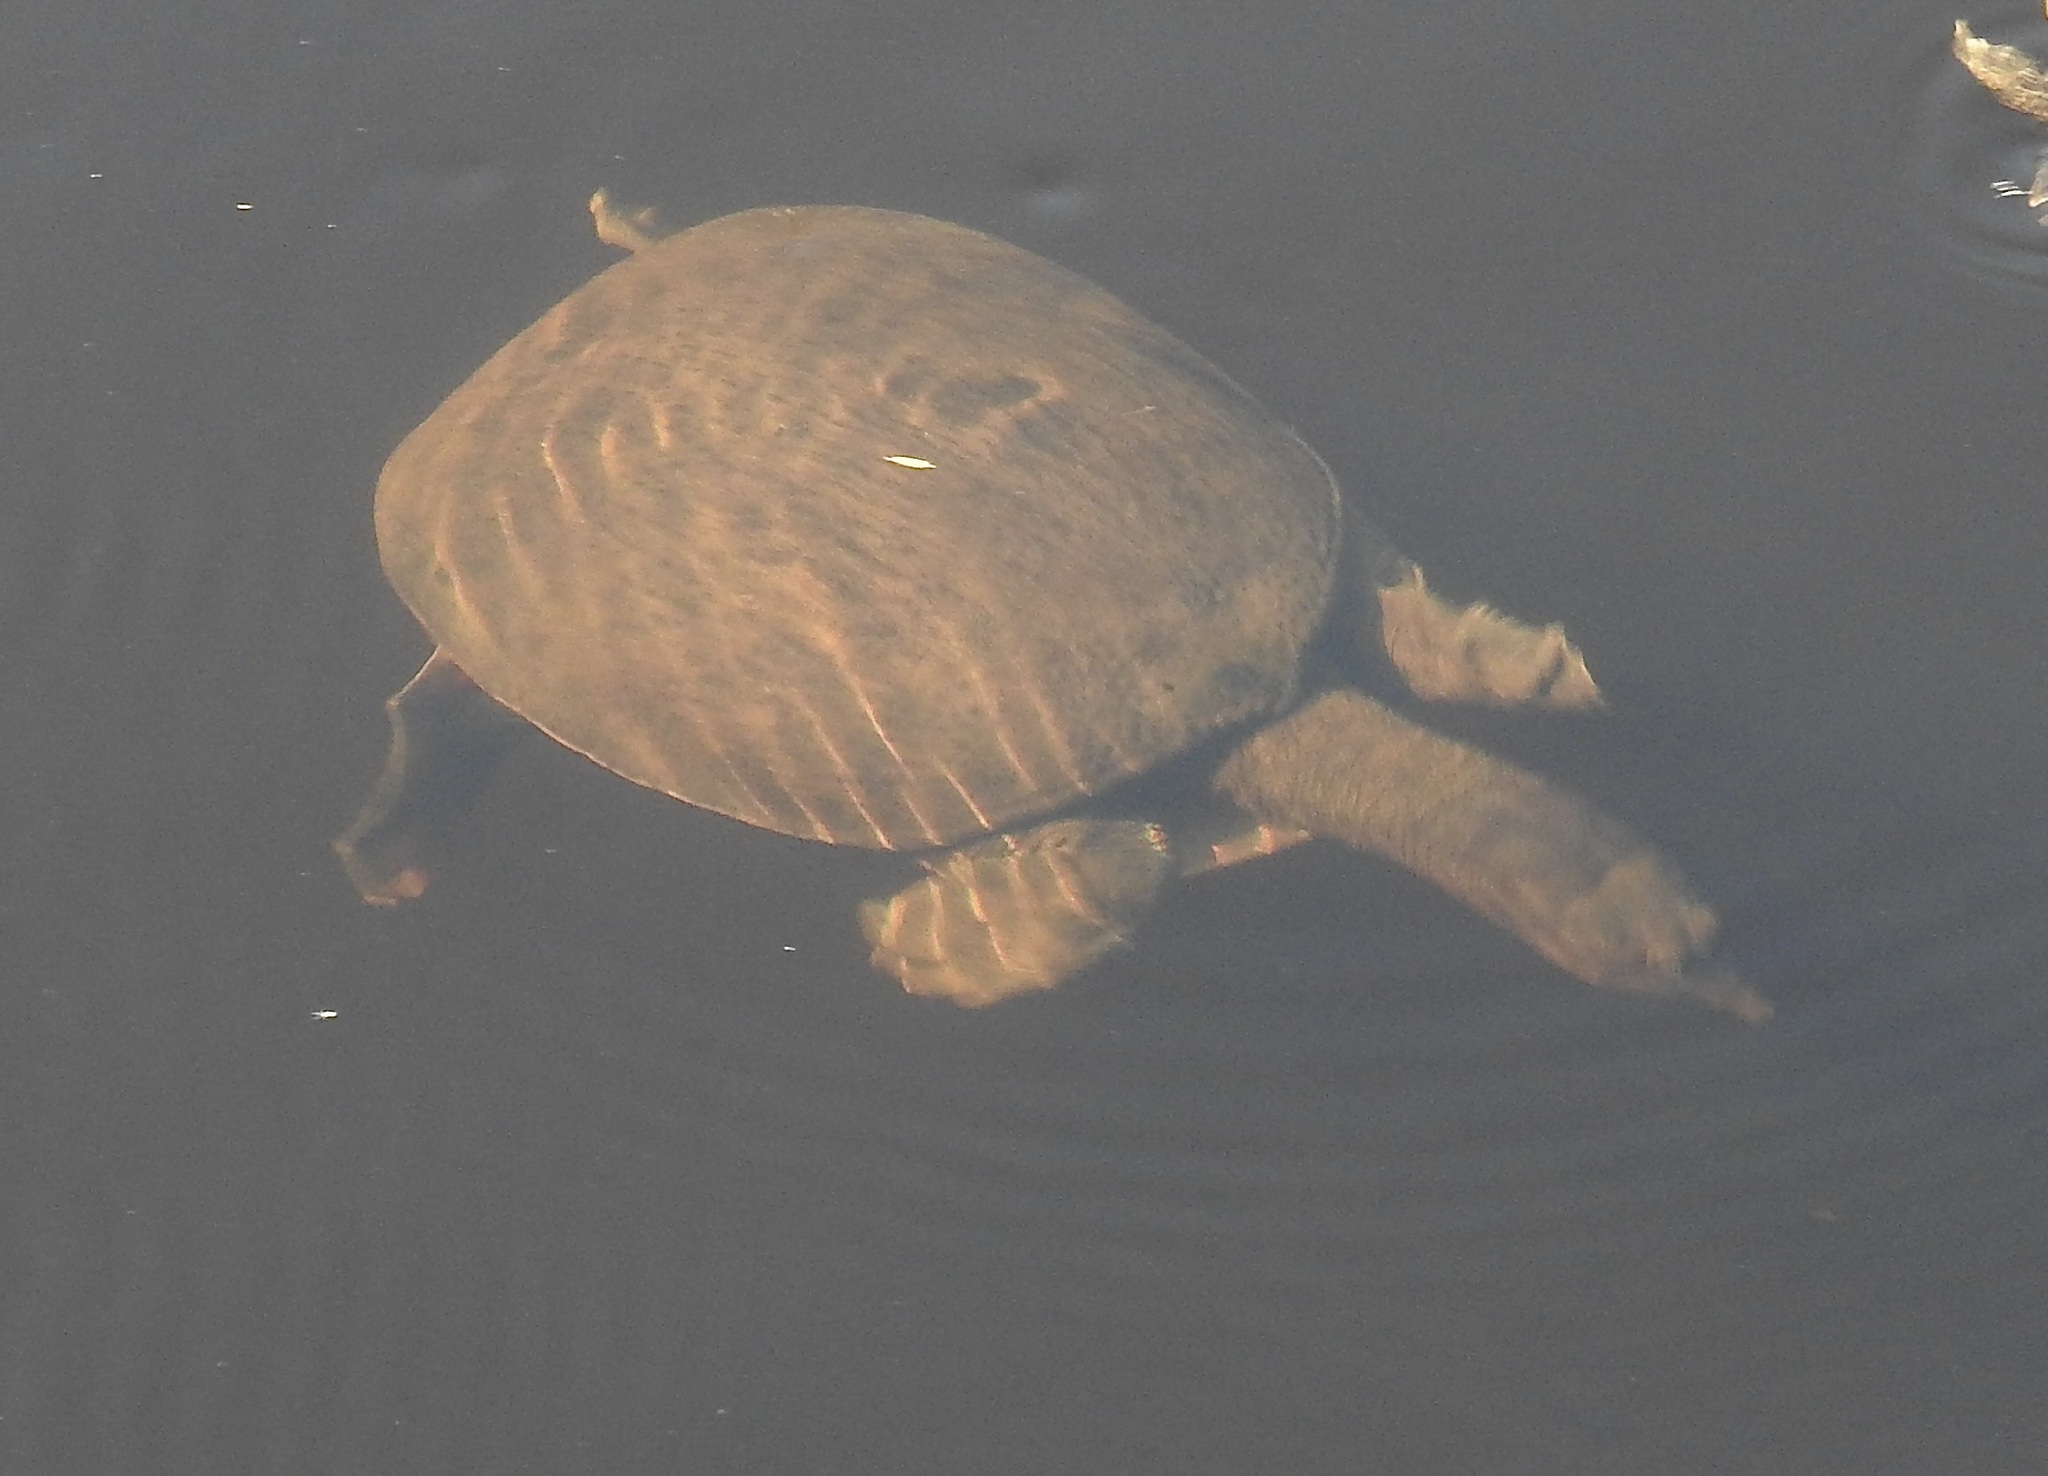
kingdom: Animalia
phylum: Chordata
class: Testudines
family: Trionychidae
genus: Apalone
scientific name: Apalone ferox
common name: Florida softshell turtle
